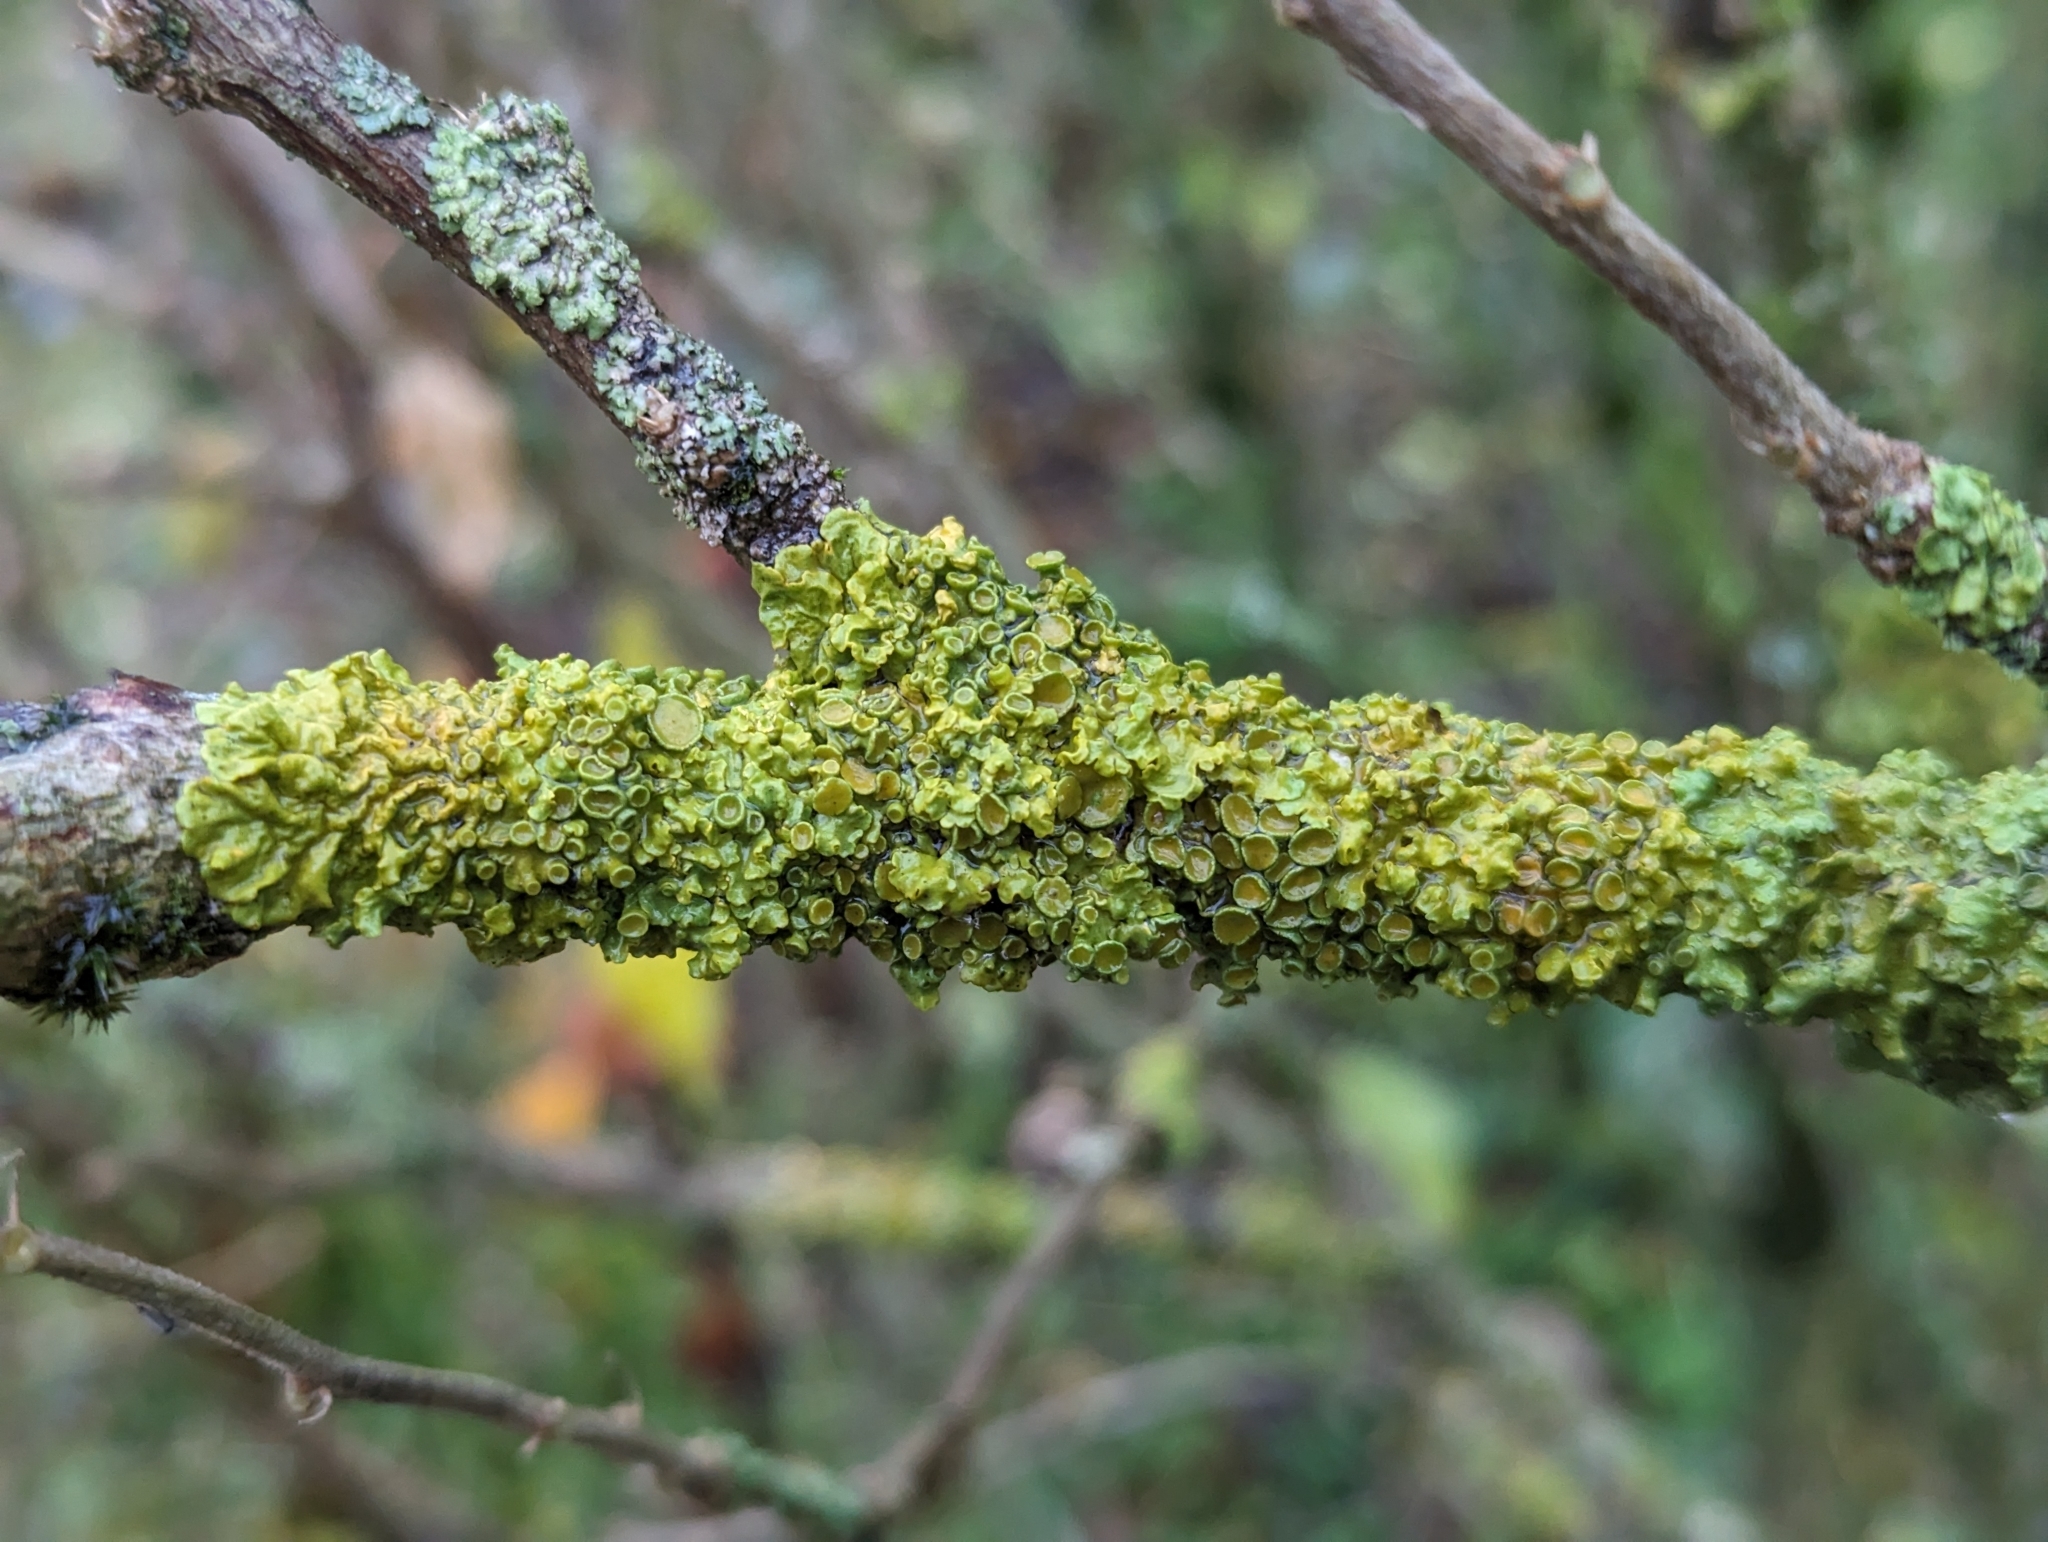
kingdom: Fungi
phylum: Ascomycota
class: Lecanoromycetes
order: Teloschistales
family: Teloschistaceae
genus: Xanthoria
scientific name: Xanthoria parietina
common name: Common orange lichen
